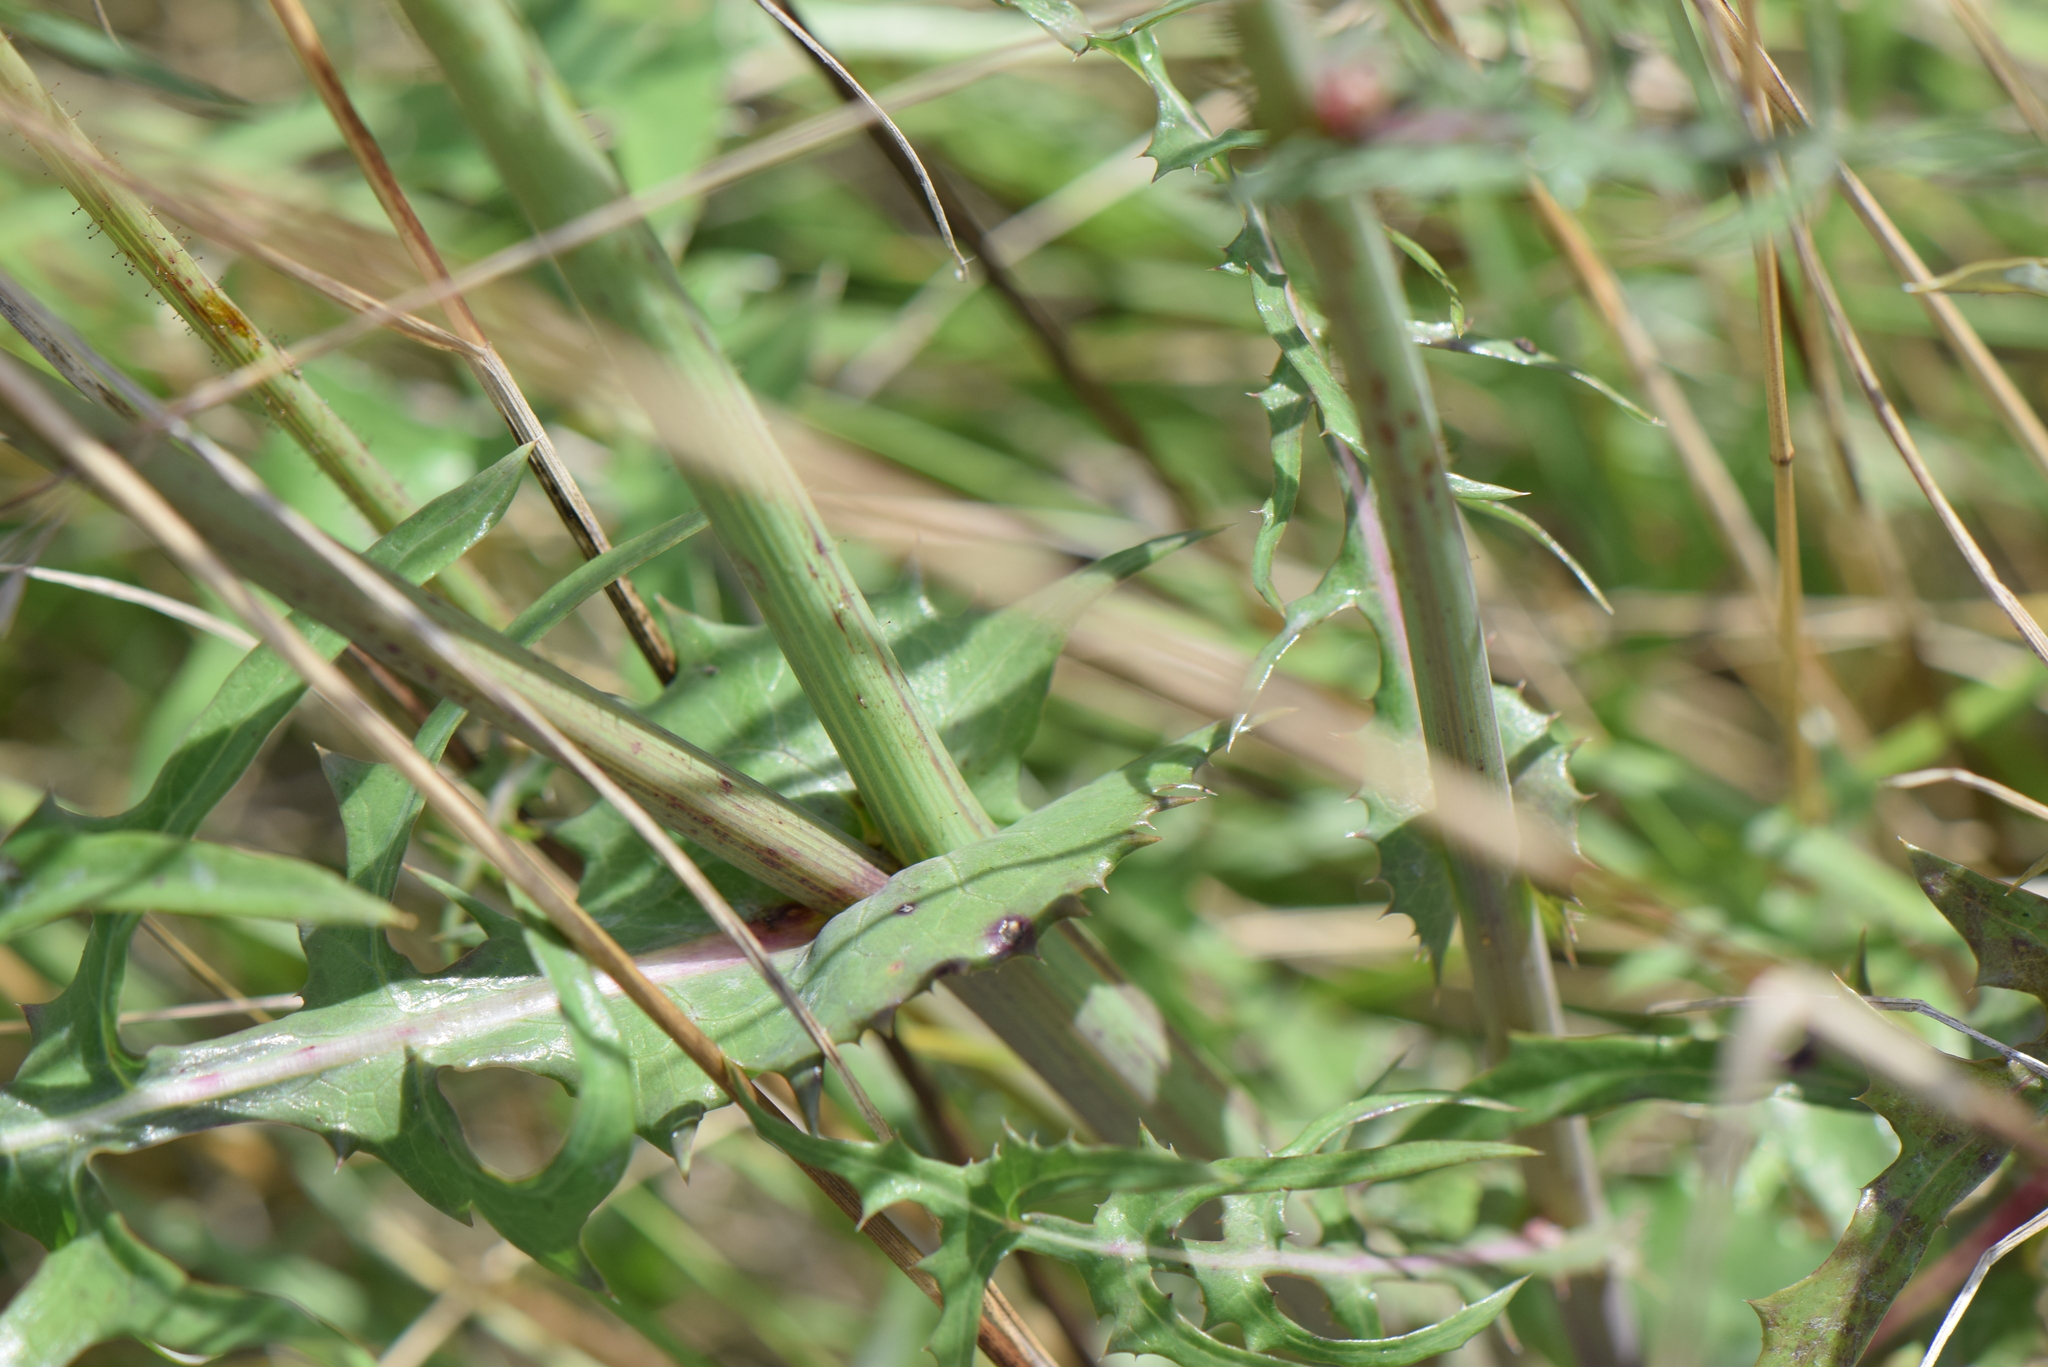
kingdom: Plantae
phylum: Tracheophyta
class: Magnoliopsida
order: Asterales
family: Asteraceae
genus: Sonchus
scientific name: Sonchus oleraceus
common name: Common sowthistle
